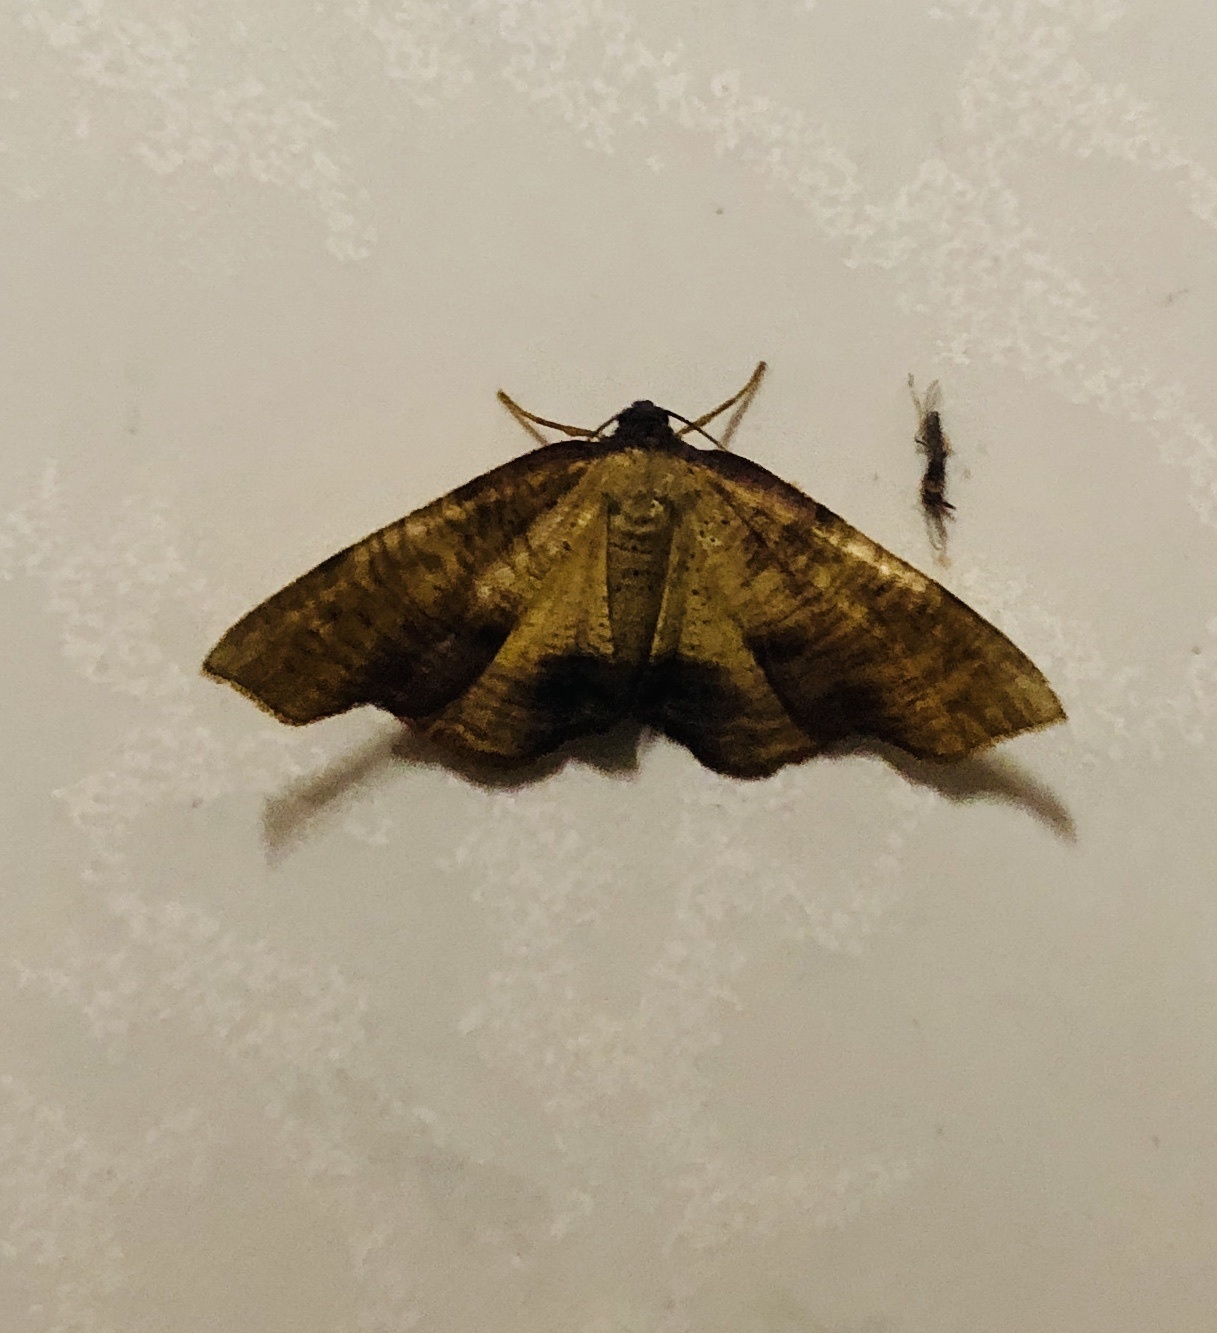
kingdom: Animalia
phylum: Arthropoda
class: Insecta
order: Lepidoptera
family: Geometridae
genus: Plagodis
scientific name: Plagodis dolabraria
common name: Scorched wing
